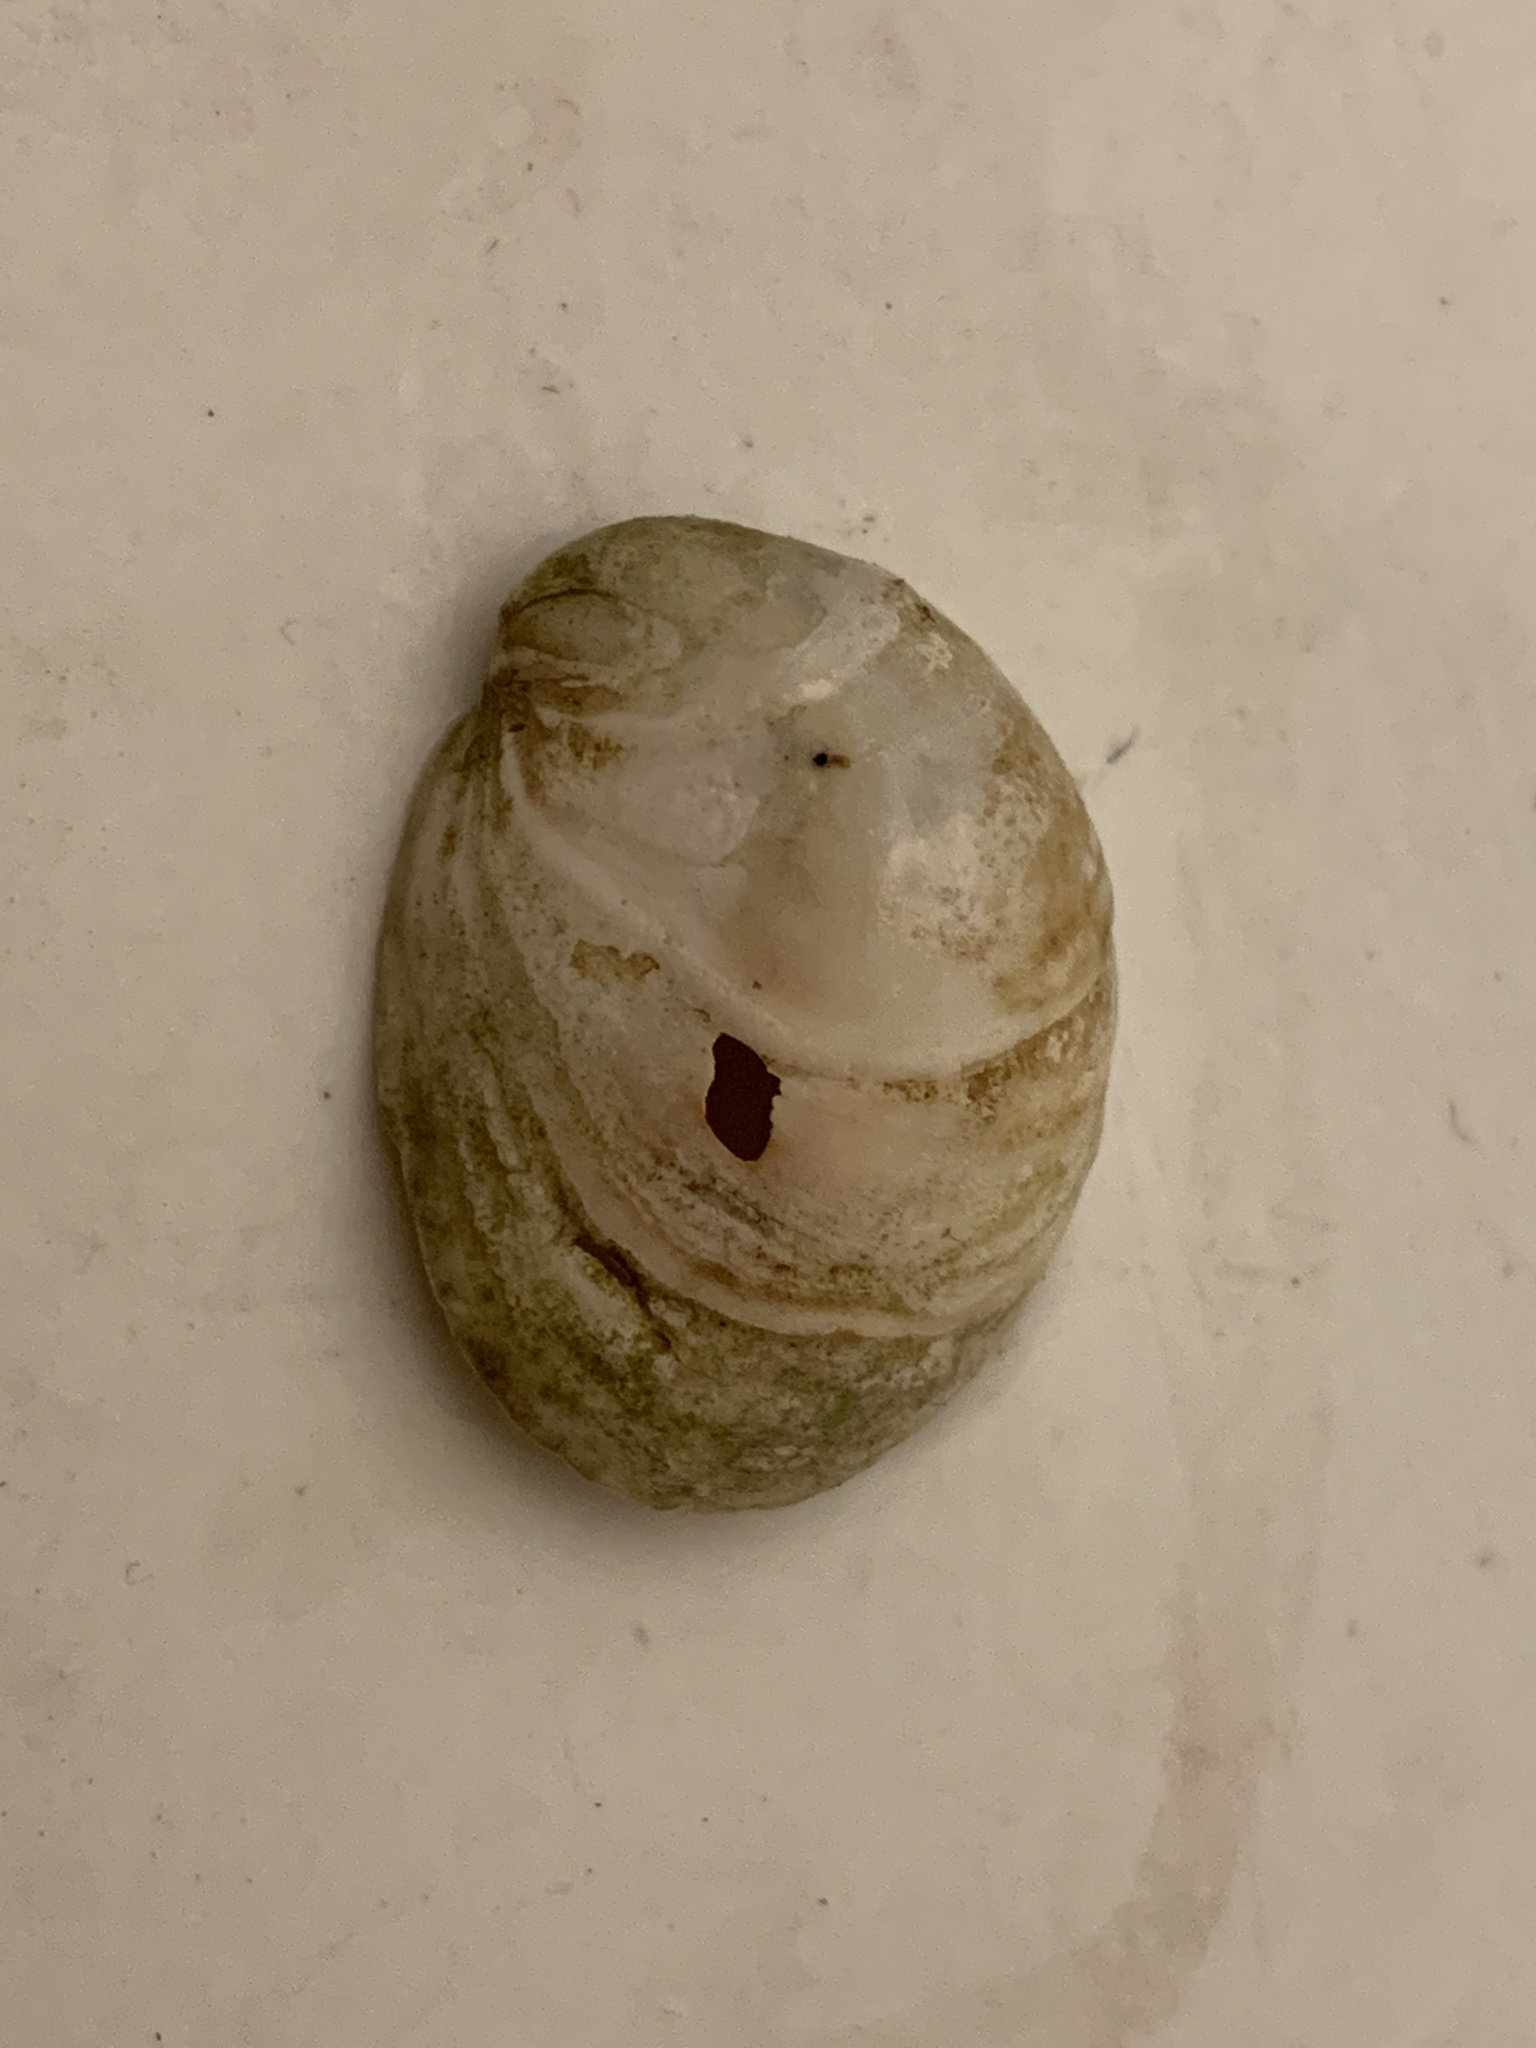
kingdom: Animalia
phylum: Mollusca
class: Gastropoda
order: Littorinimorpha
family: Calyptraeidae
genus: Crepidula
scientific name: Crepidula fornicata
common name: Slipper limpet
